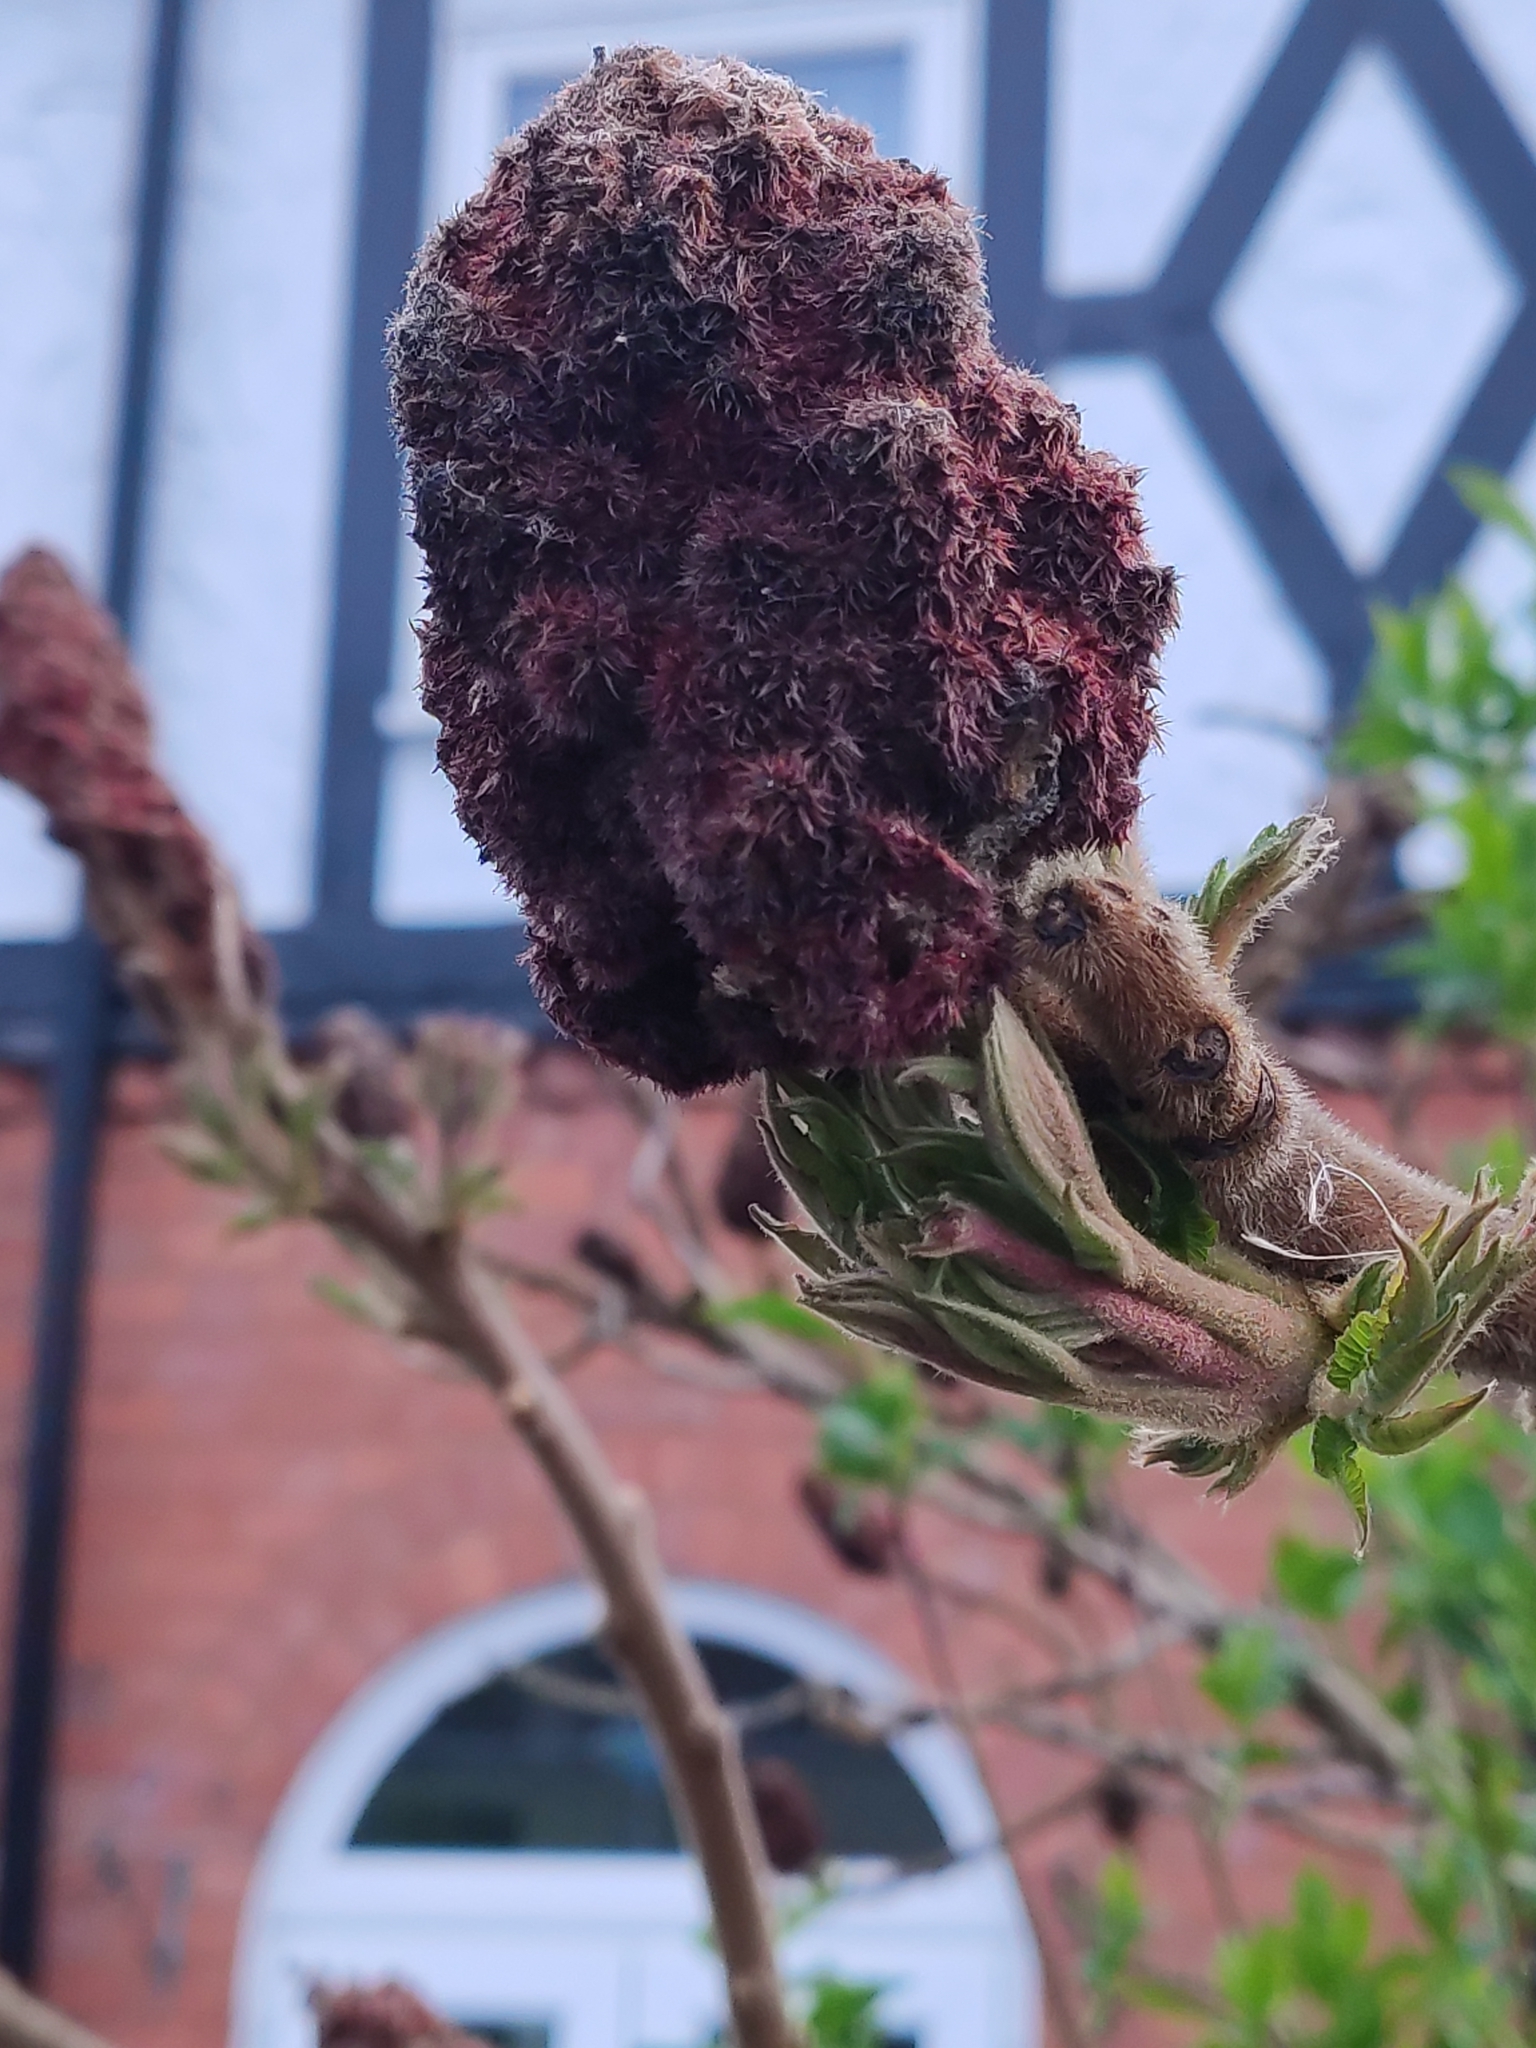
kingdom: Plantae
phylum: Tracheophyta
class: Magnoliopsida
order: Sapindales
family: Anacardiaceae
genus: Rhus
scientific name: Rhus typhina
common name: Staghorn sumac
